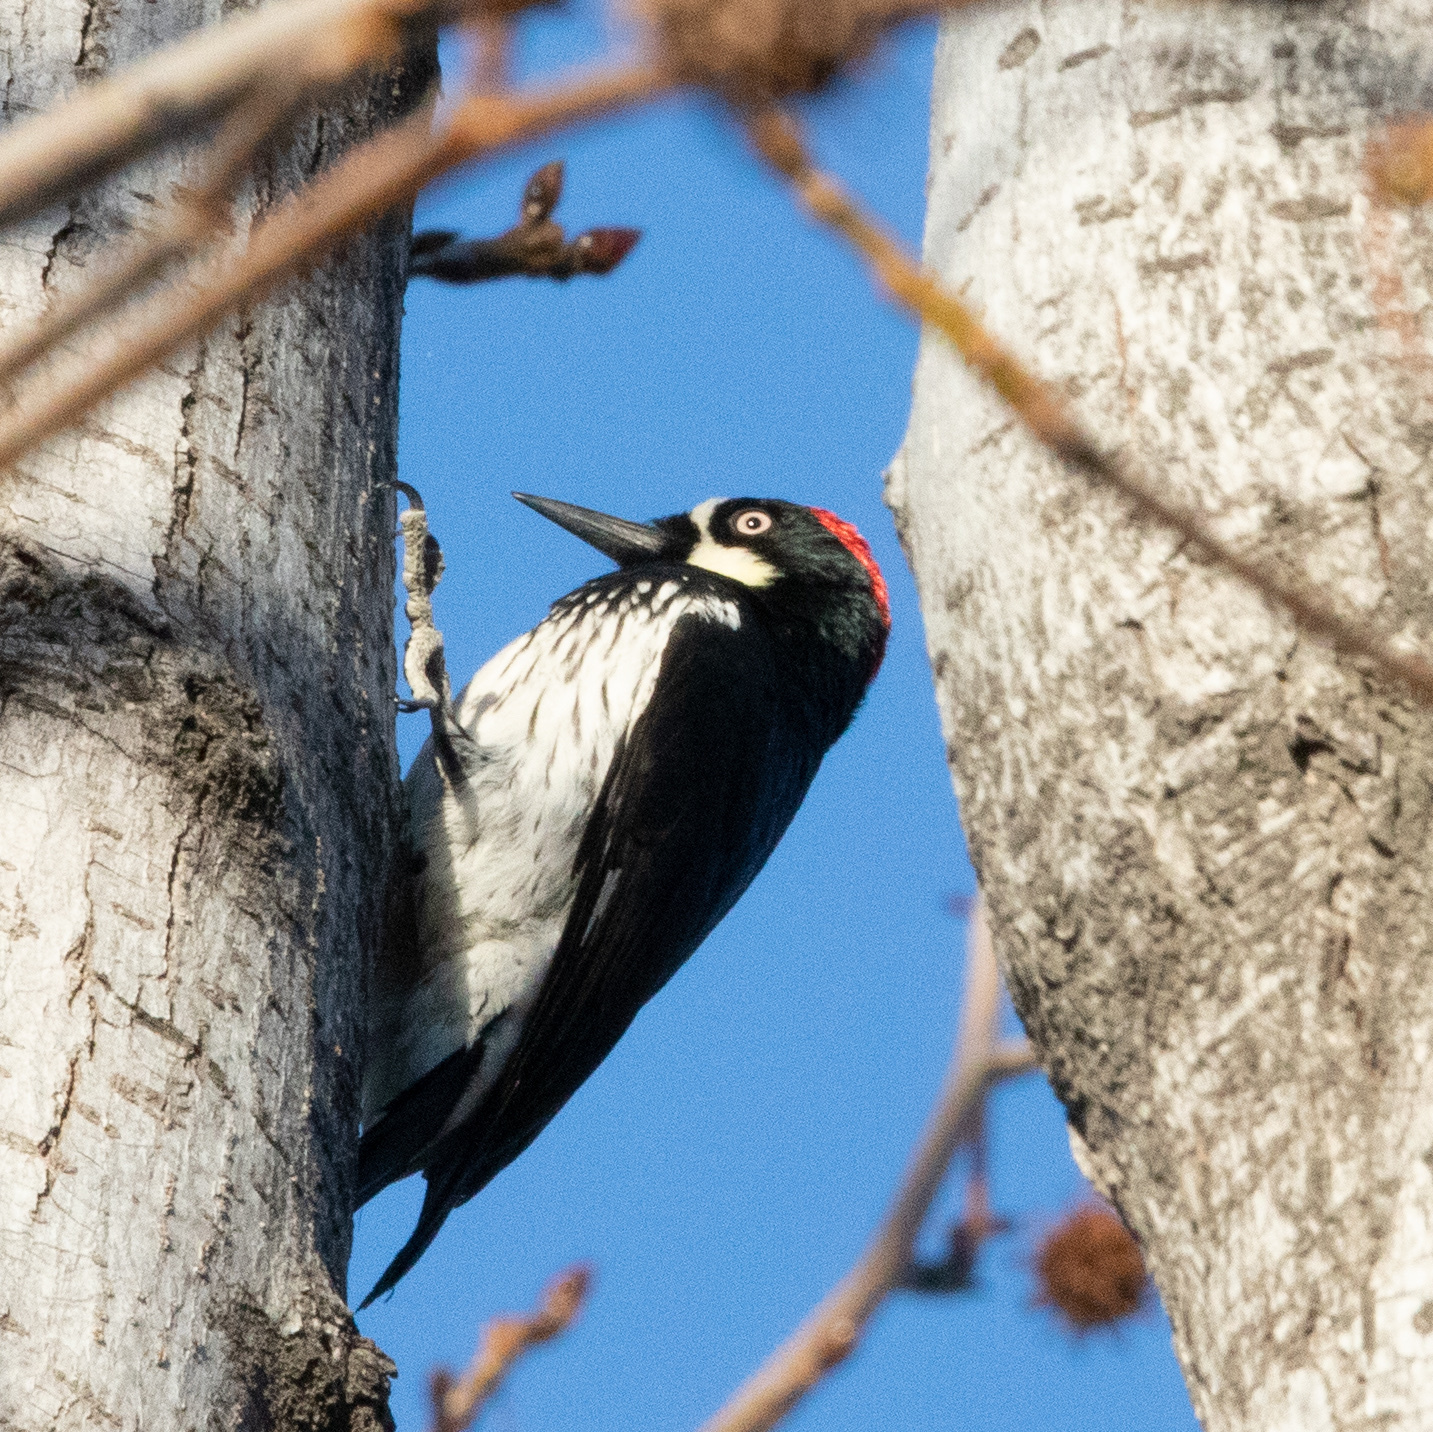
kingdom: Animalia
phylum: Chordata
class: Aves
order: Piciformes
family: Picidae
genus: Melanerpes
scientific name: Melanerpes formicivorus
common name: Acorn woodpecker
